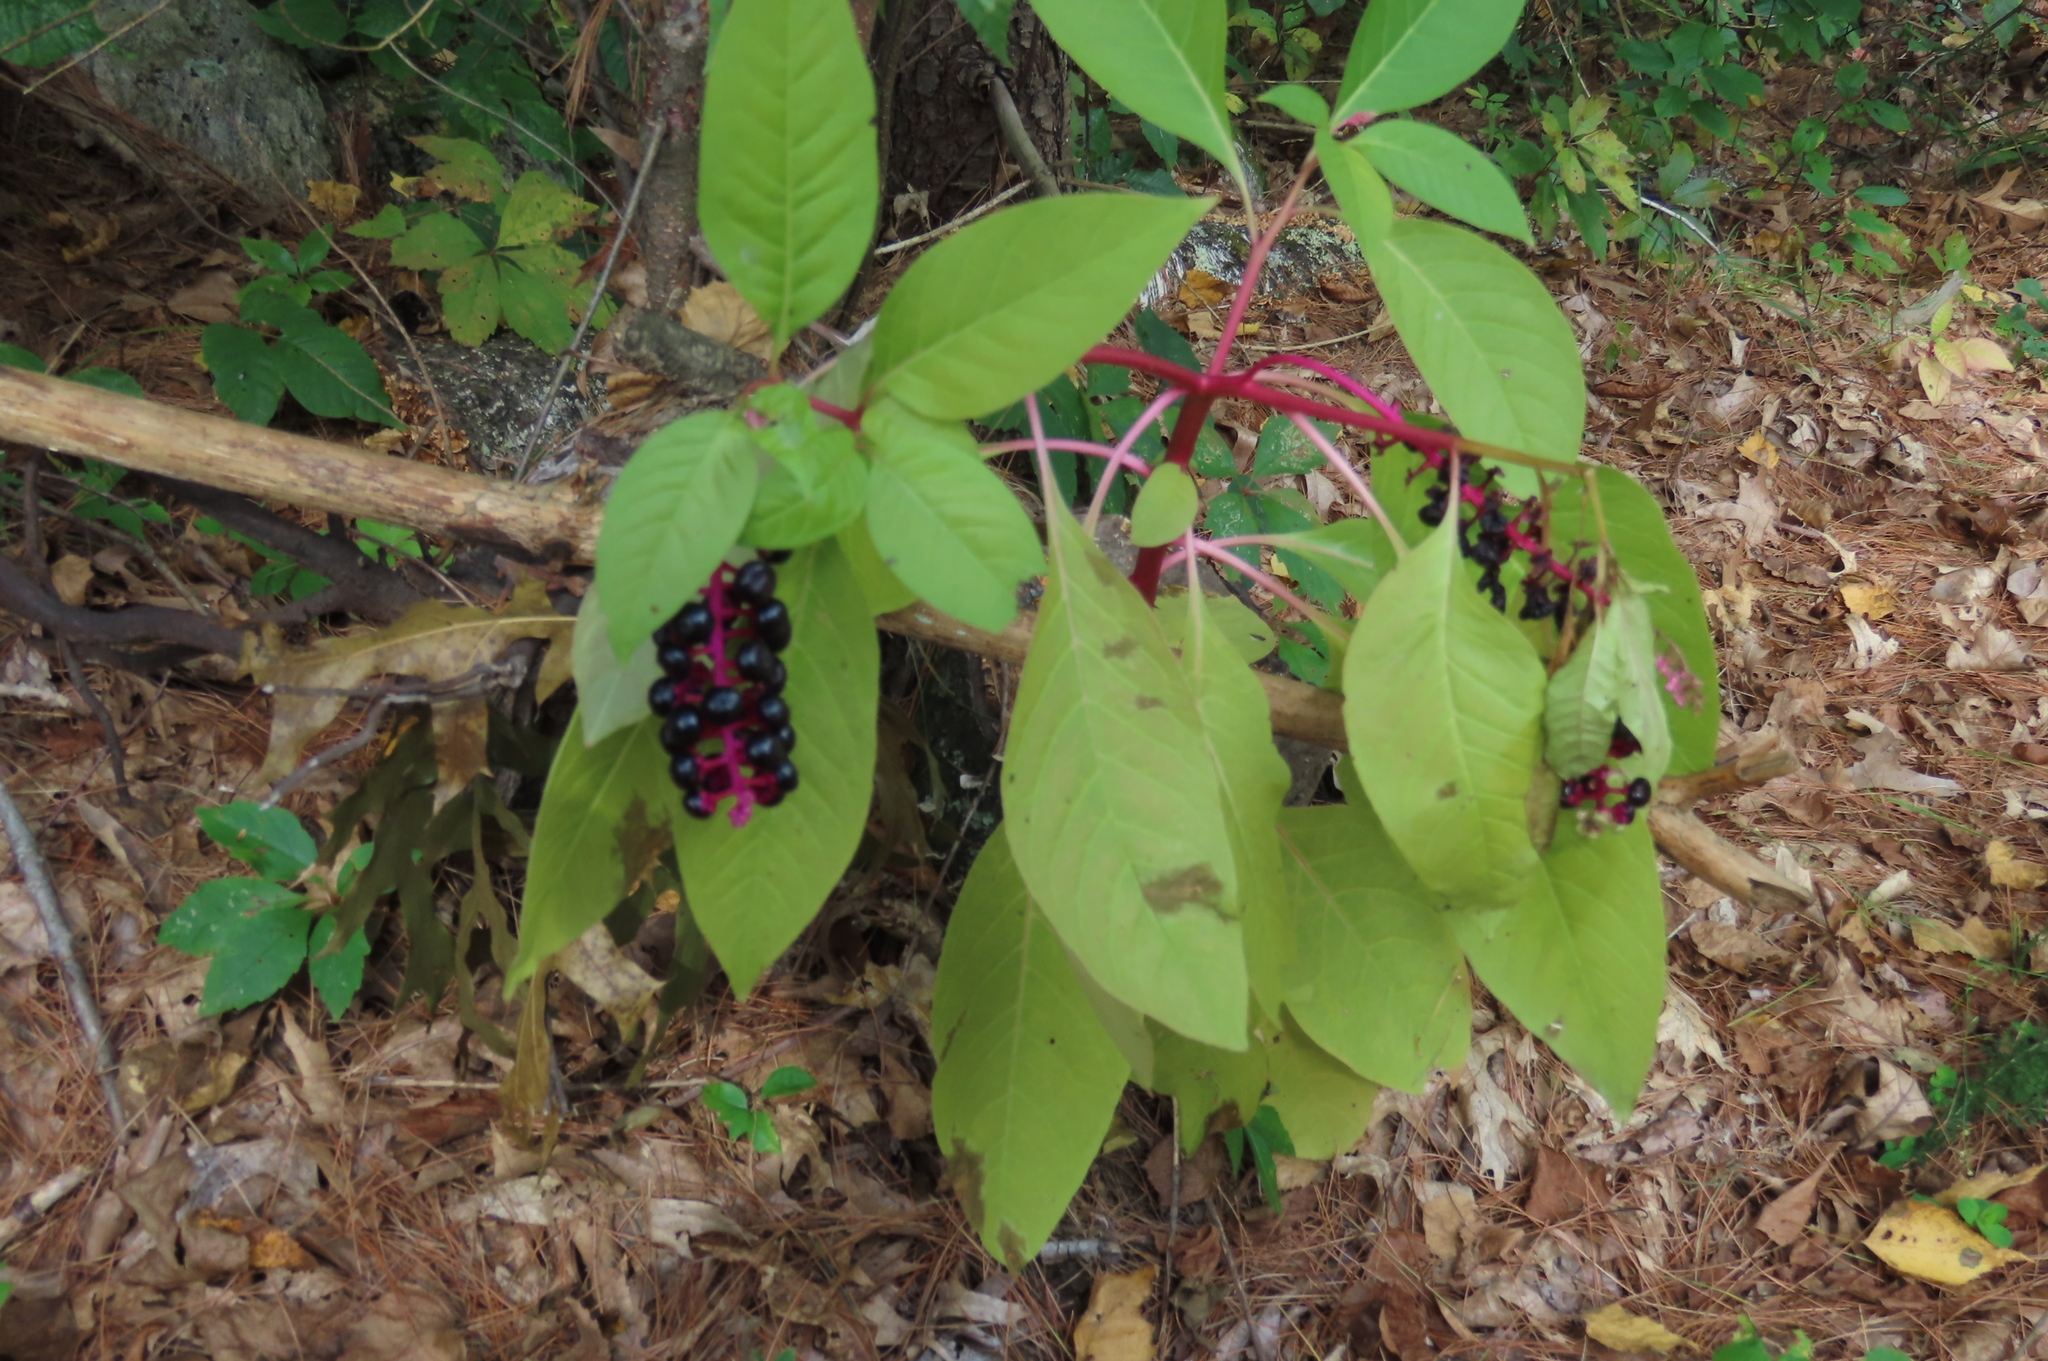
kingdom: Plantae
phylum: Tracheophyta
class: Magnoliopsida
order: Caryophyllales
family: Phytolaccaceae
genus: Phytolacca
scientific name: Phytolacca americana
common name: American pokeweed
